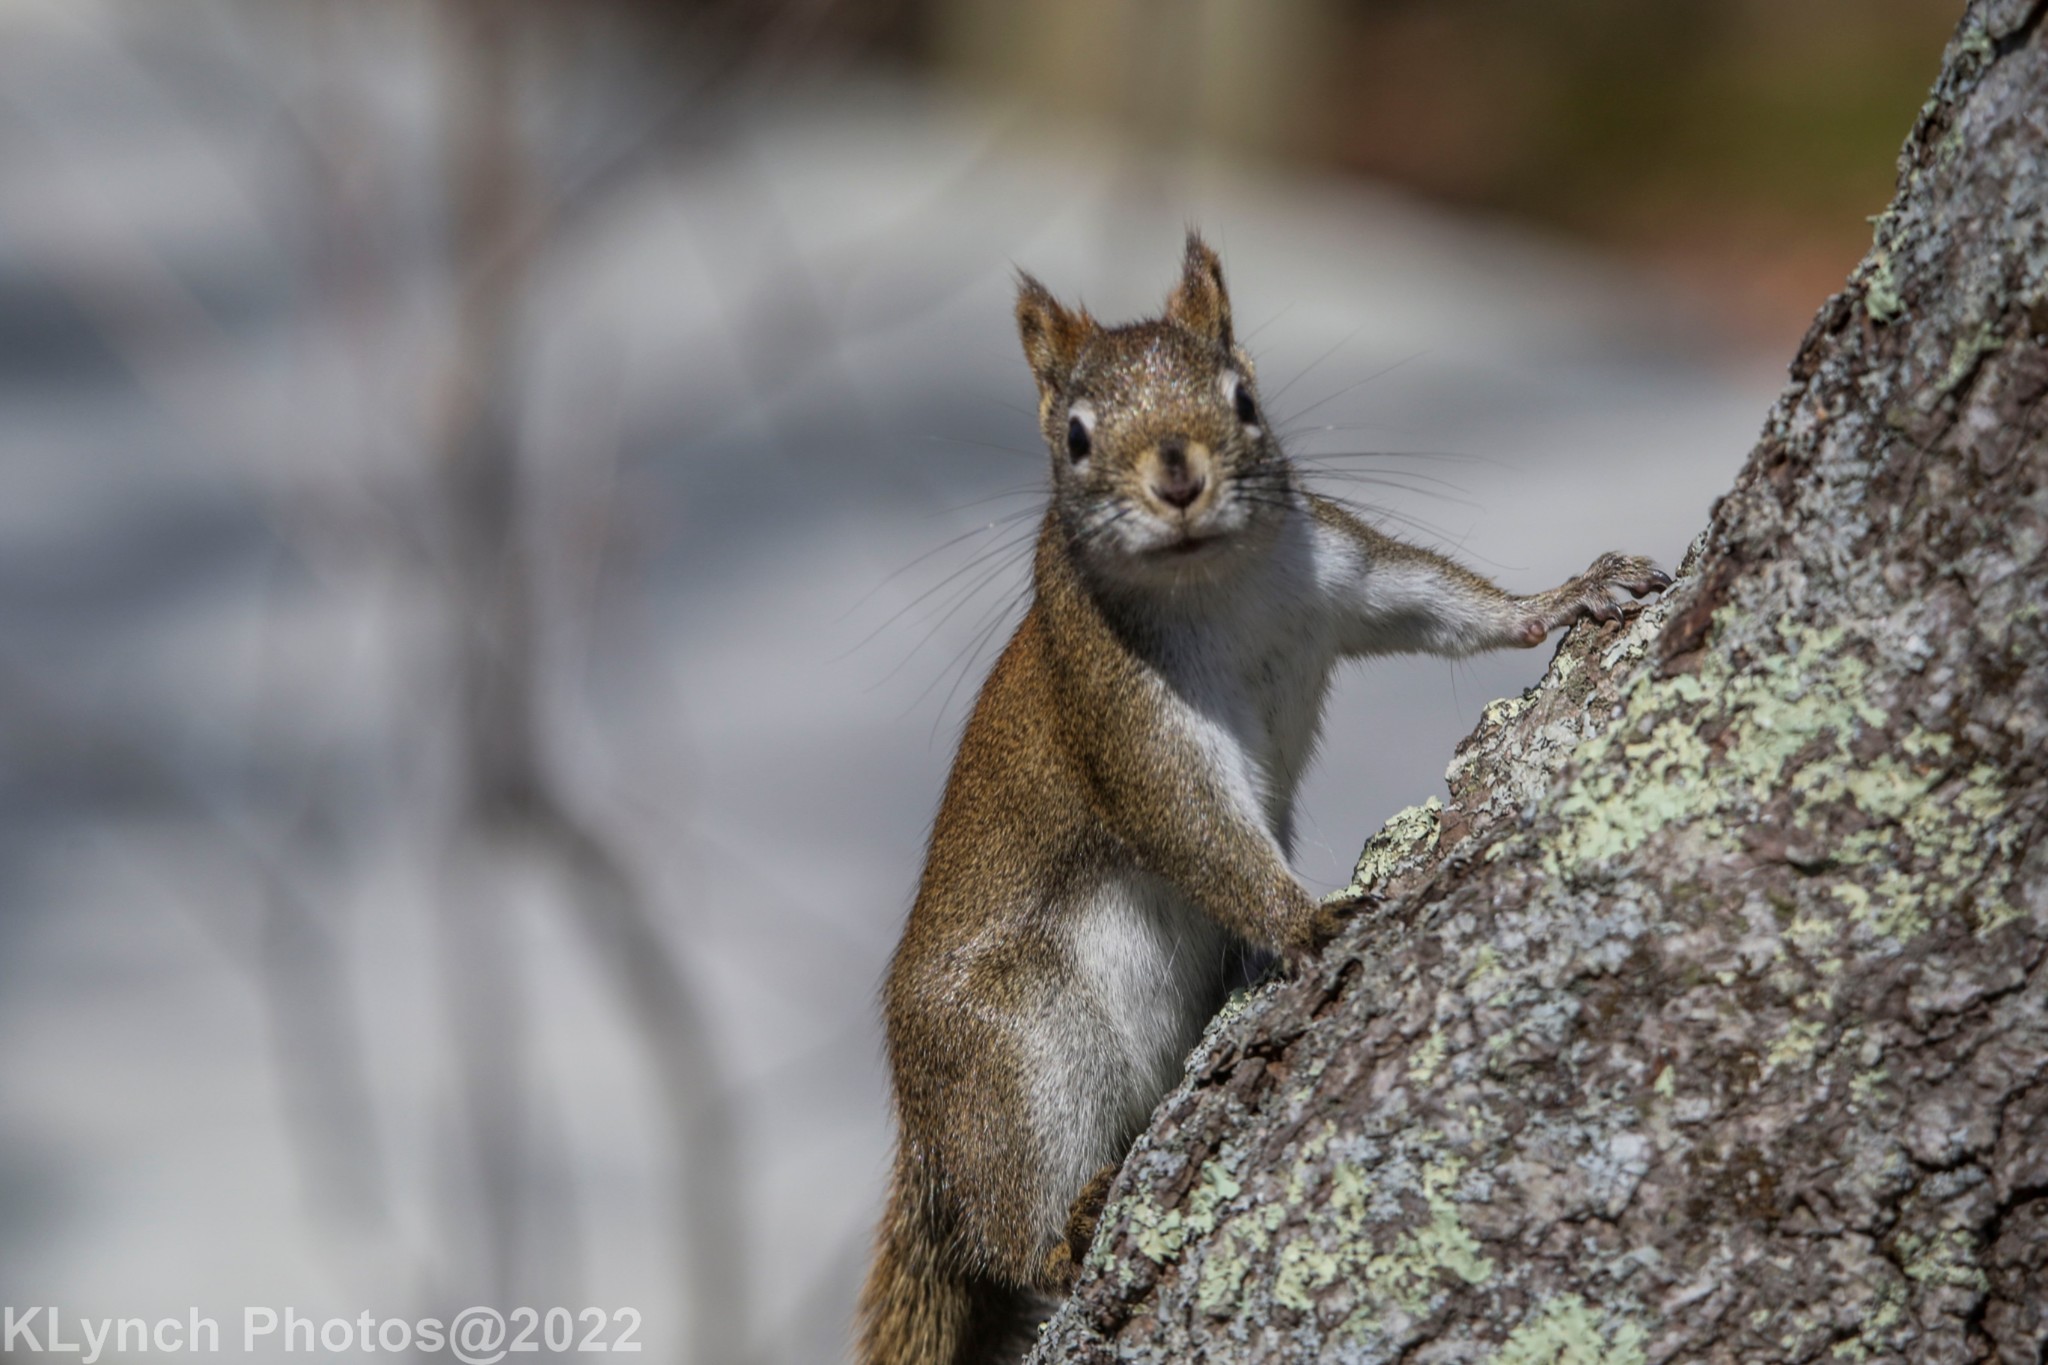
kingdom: Animalia
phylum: Chordata
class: Mammalia
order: Rodentia
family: Sciuridae
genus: Tamiasciurus
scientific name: Tamiasciurus hudsonicus
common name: Red squirrel
